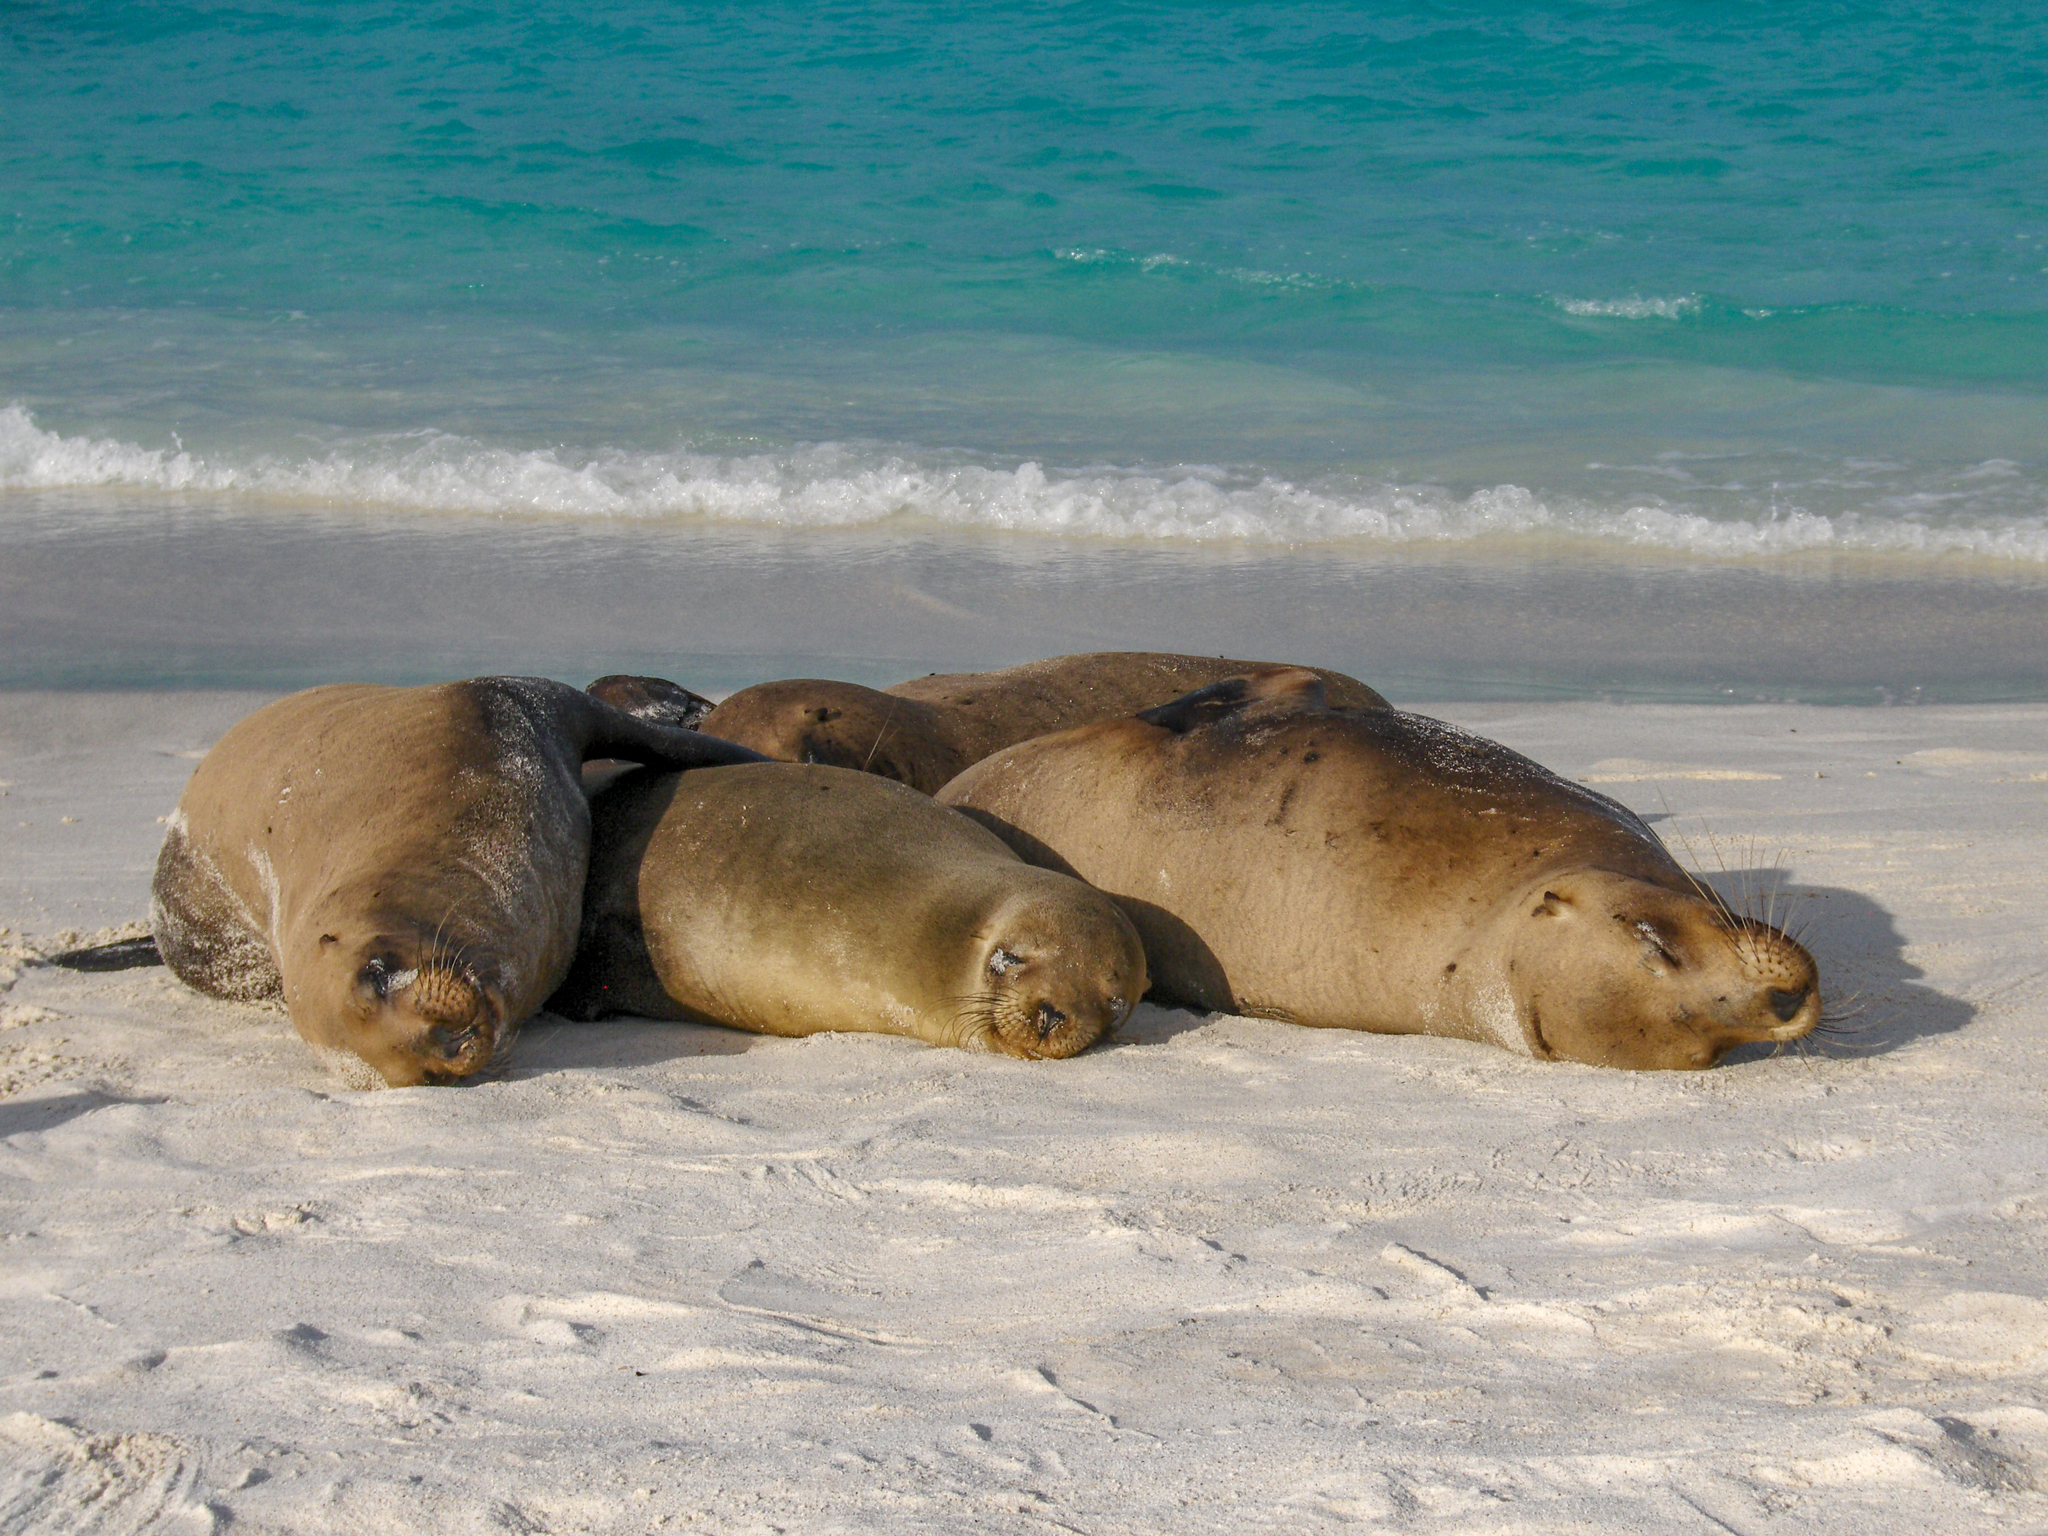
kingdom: Animalia
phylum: Chordata
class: Mammalia
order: Carnivora
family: Otariidae
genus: Zalophus
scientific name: Zalophus wollebaeki
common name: Galapagos sea lion
